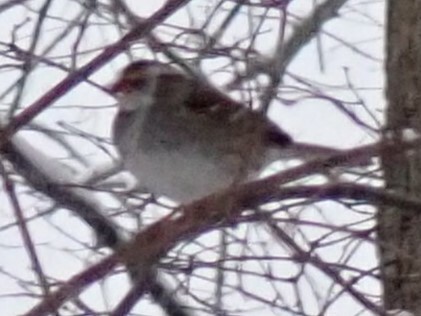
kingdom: Animalia
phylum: Chordata
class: Aves
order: Passeriformes
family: Passerellidae
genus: Zonotrichia
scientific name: Zonotrichia albicollis
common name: White-throated sparrow
